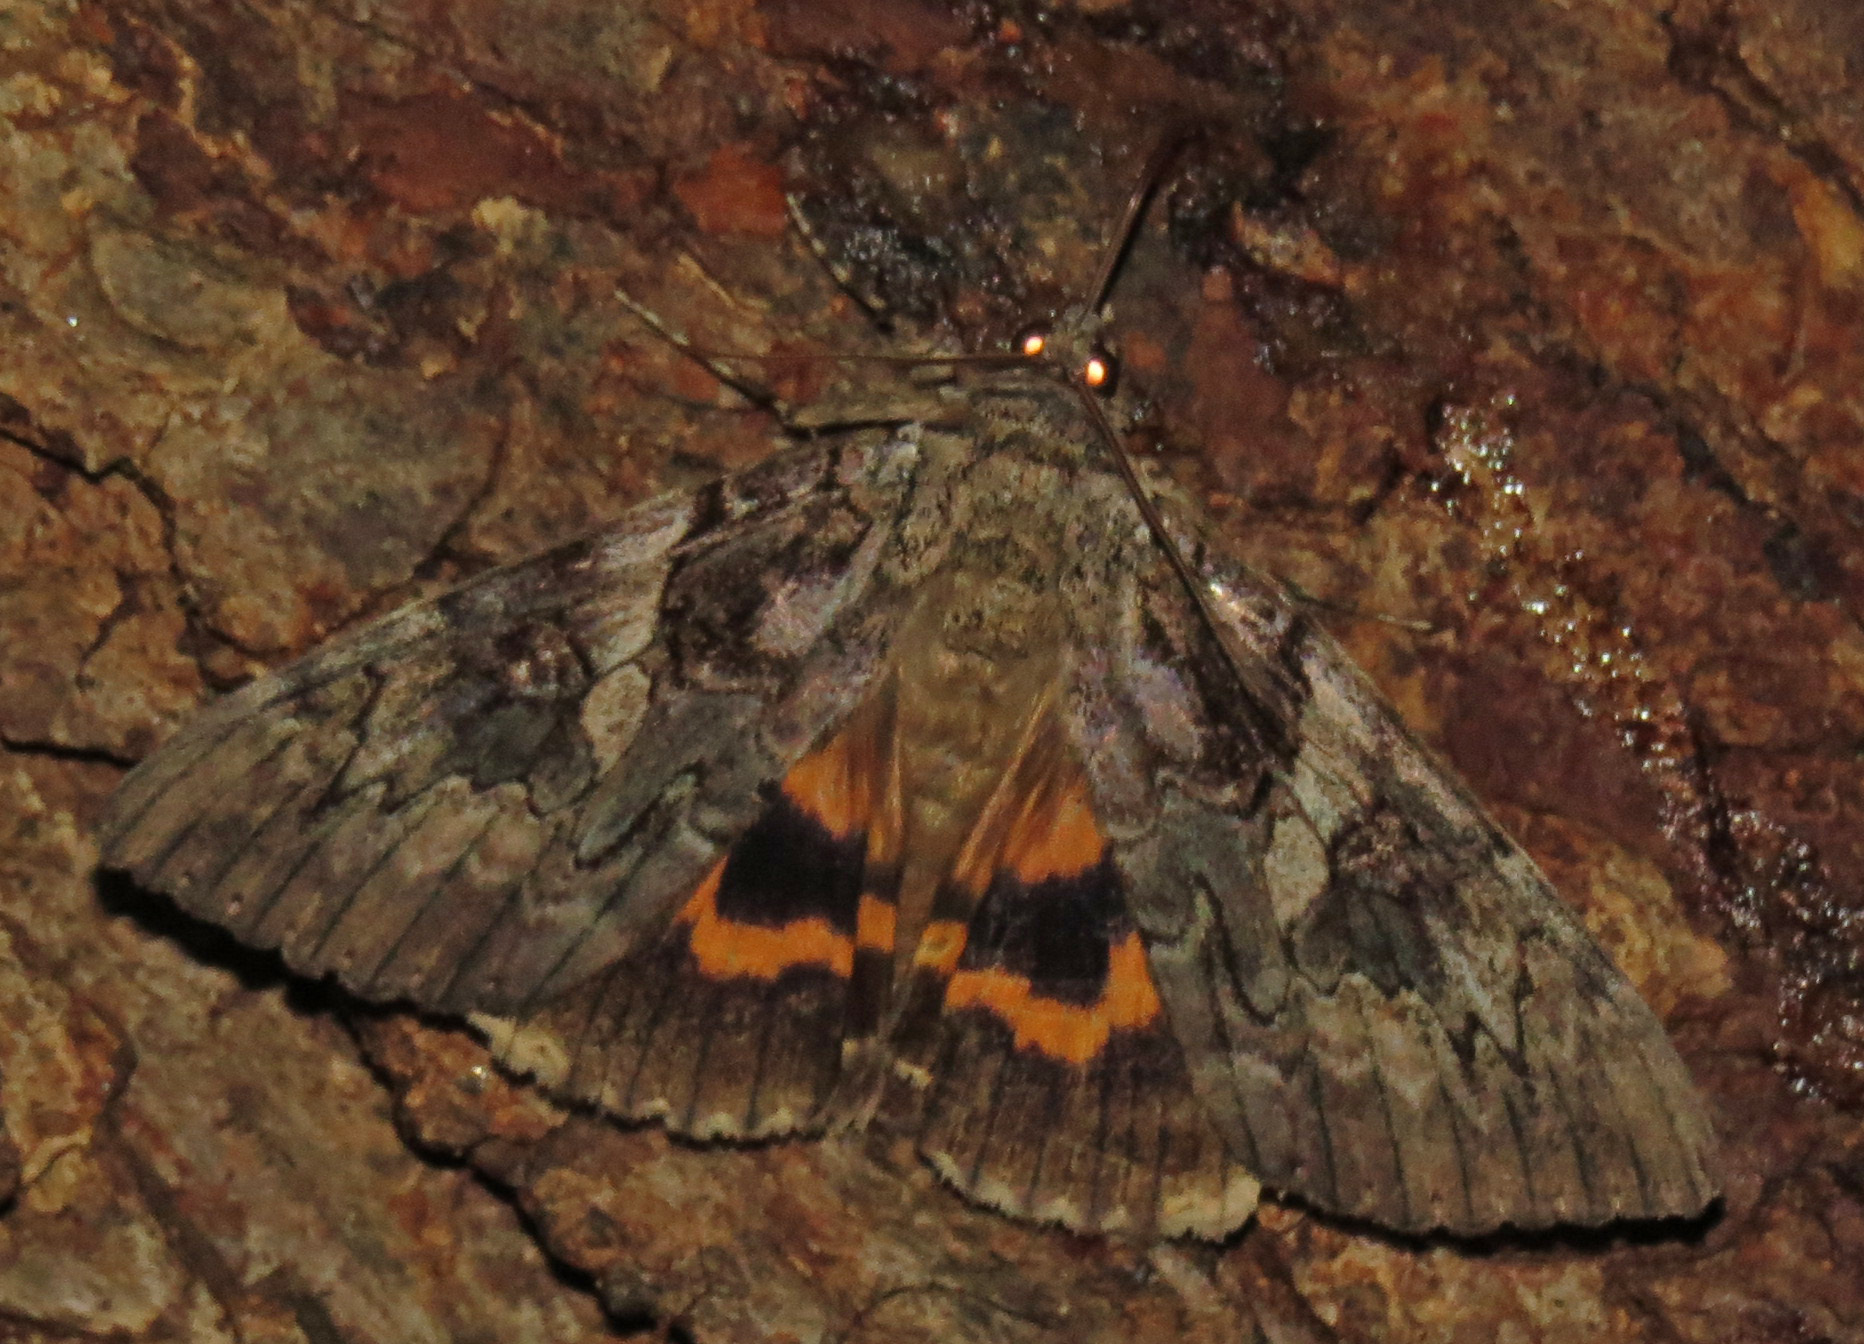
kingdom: Animalia
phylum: Arthropoda
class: Insecta
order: Lepidoptera
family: Erebidae
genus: Catocala
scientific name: Catocala piatrix
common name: The penitent underwing
